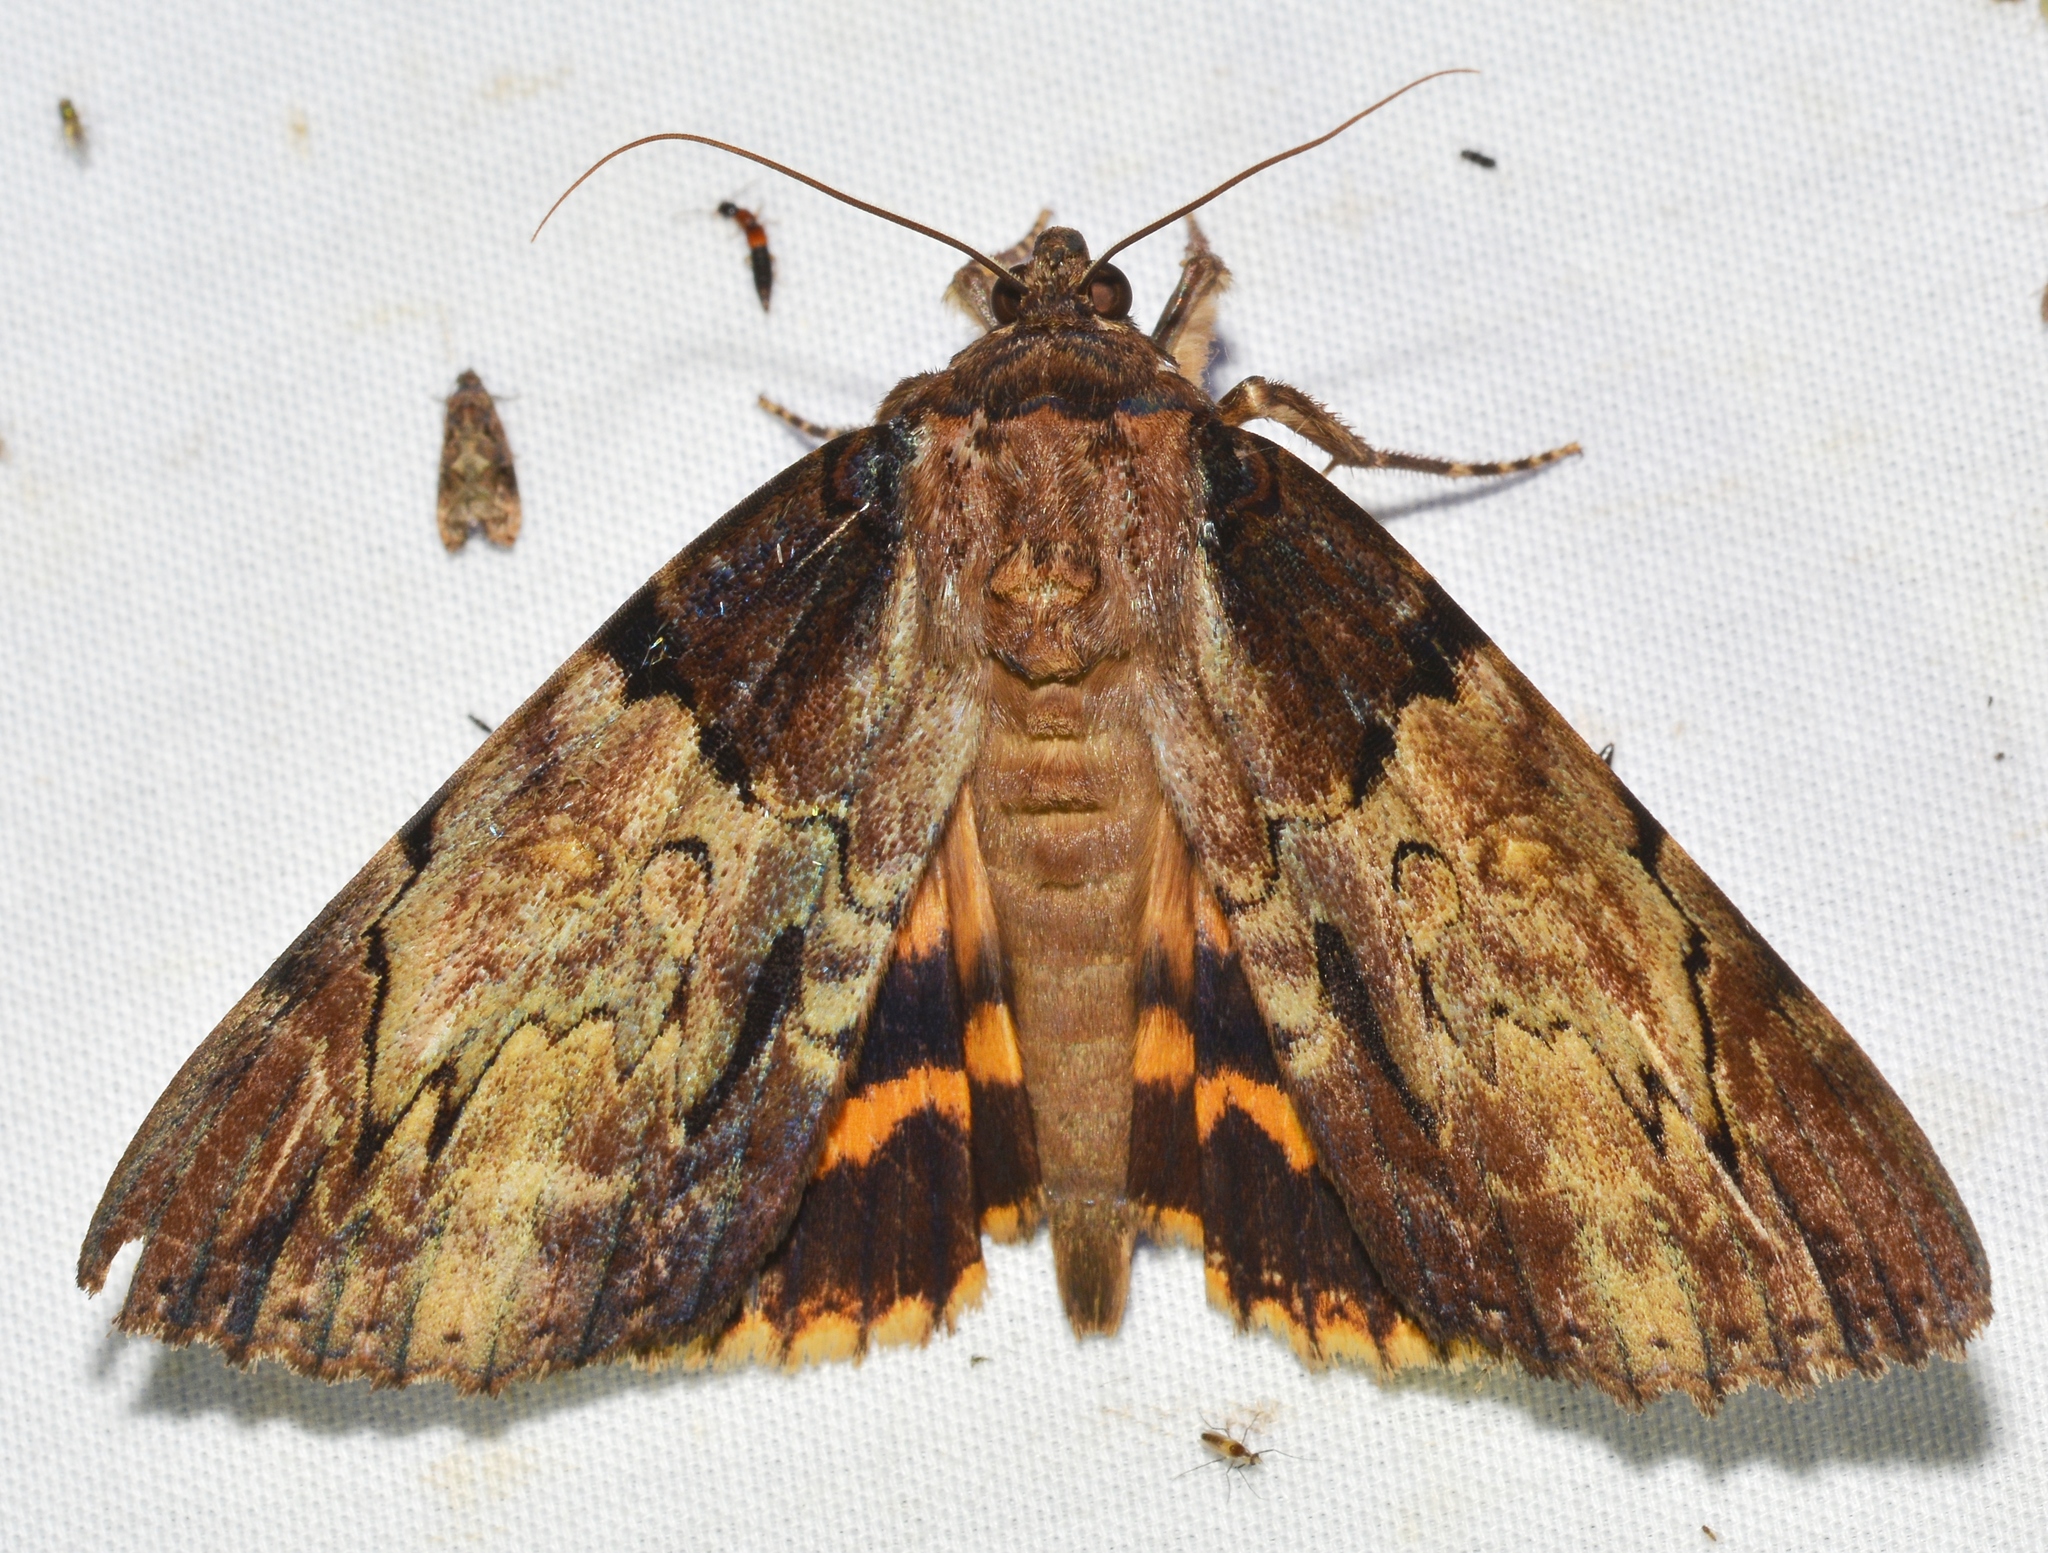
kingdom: Animalia
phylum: Arthropoda
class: Insecta
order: Lepidoptera
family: Erebidae
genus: Catocala
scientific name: Catocala nebulosa
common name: Clouded underwing
